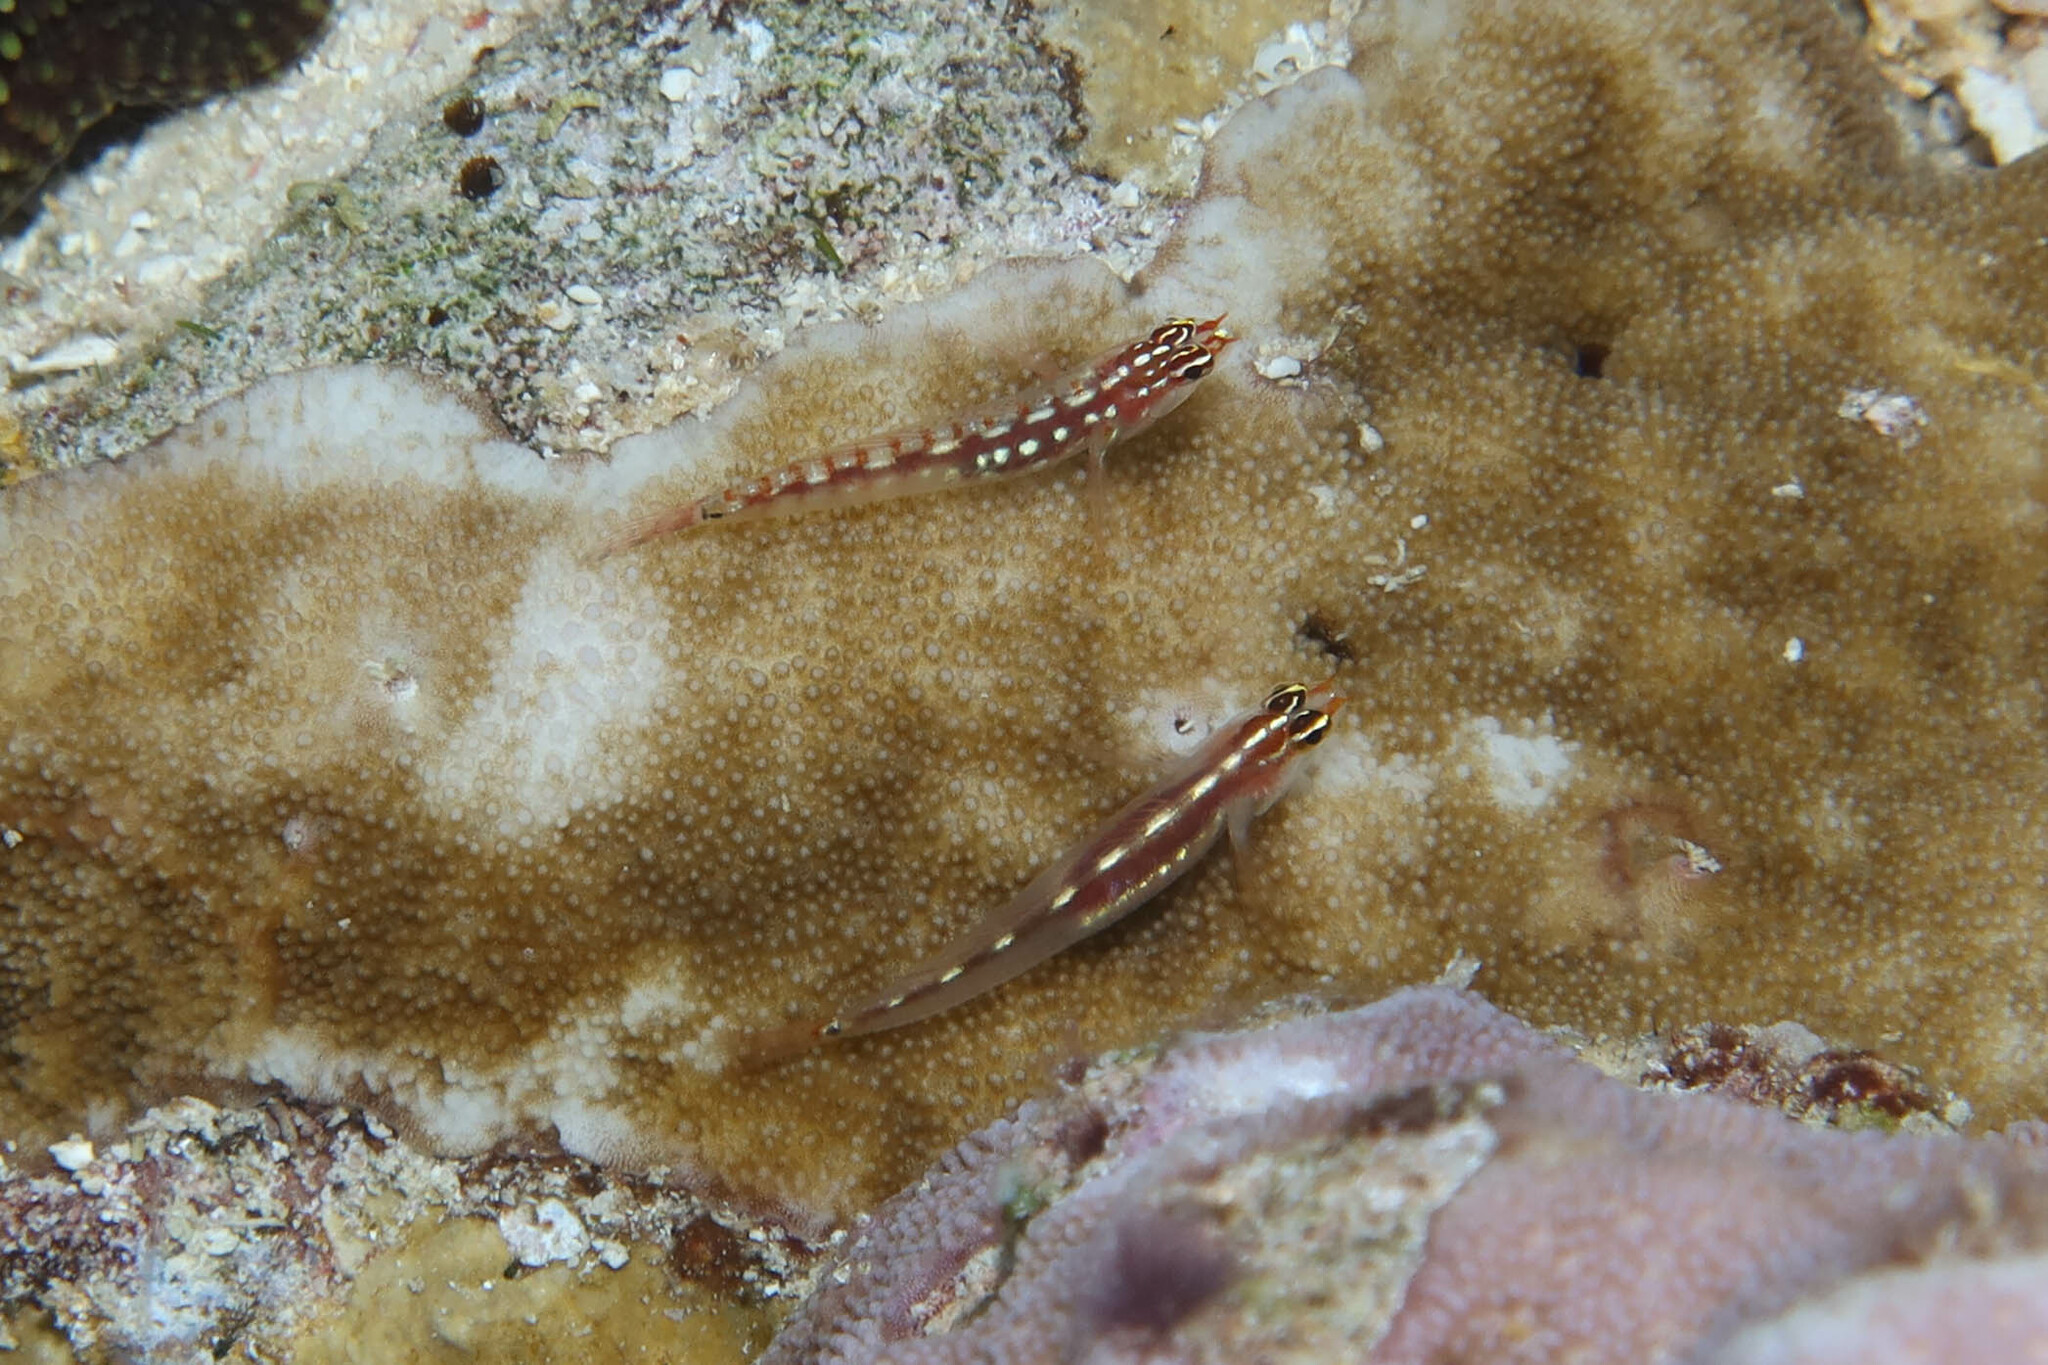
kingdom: Animalia
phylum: Chordata
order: Perciformes
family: Gobiidae
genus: Eviota
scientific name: Eviota punyit
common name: Punyit dwarfgoby
